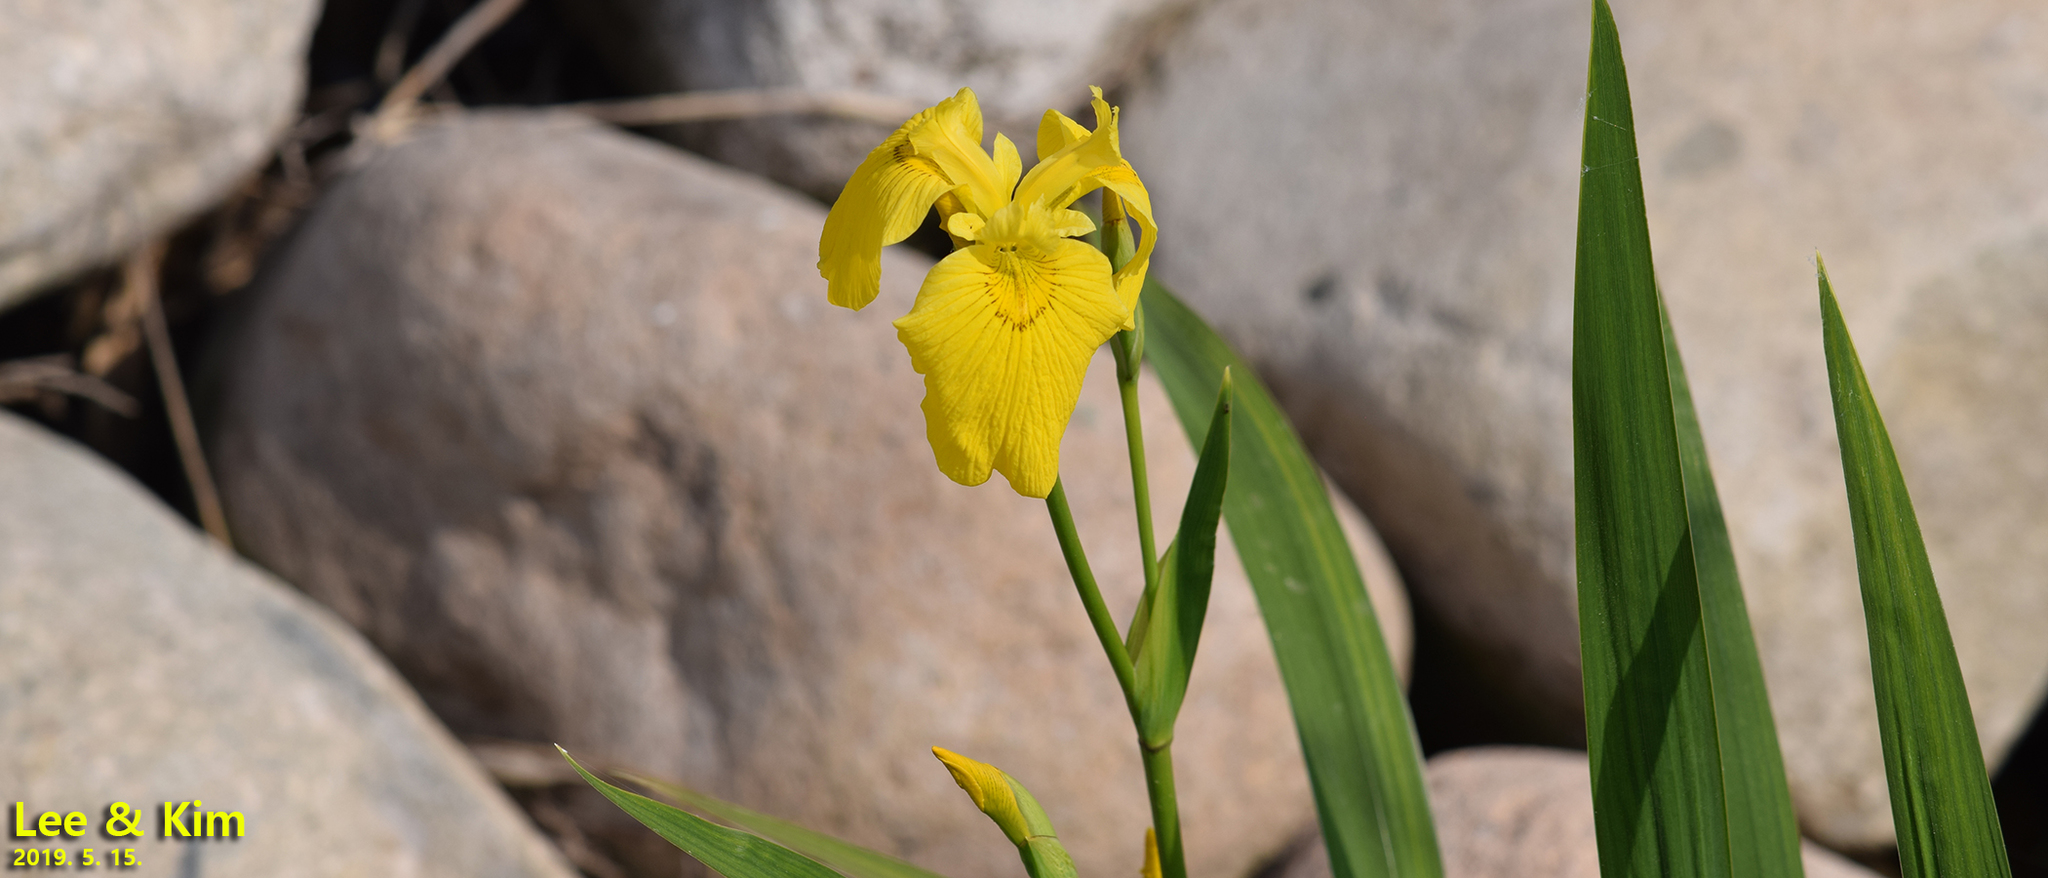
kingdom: Plantae
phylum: Tracheophyta
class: Liliopsida
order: Asparagales
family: Iridaceae
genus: Iris
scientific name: Iris pseudacorus
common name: Yellow flag
